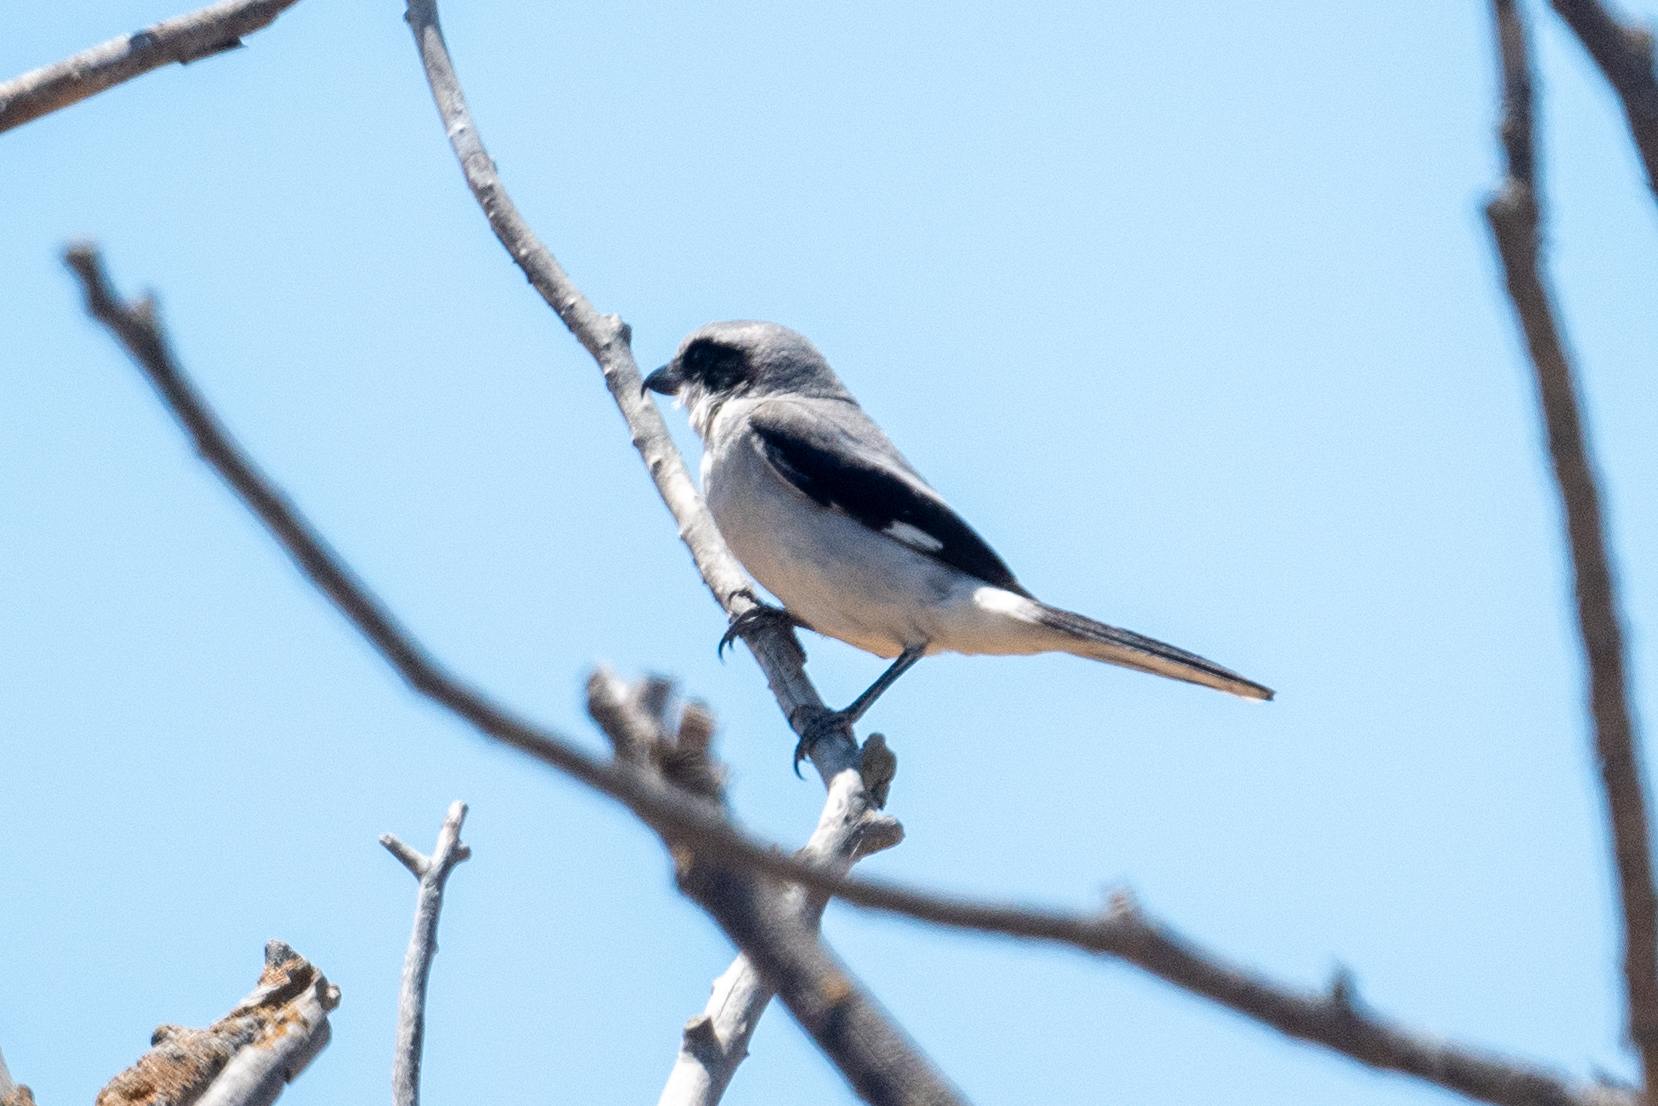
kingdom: Animalia
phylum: Chordata
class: Aves
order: Passeriformes
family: Laniidae
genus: Lanius
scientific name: Lanius ludovicianus
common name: Loggerhead shrike
